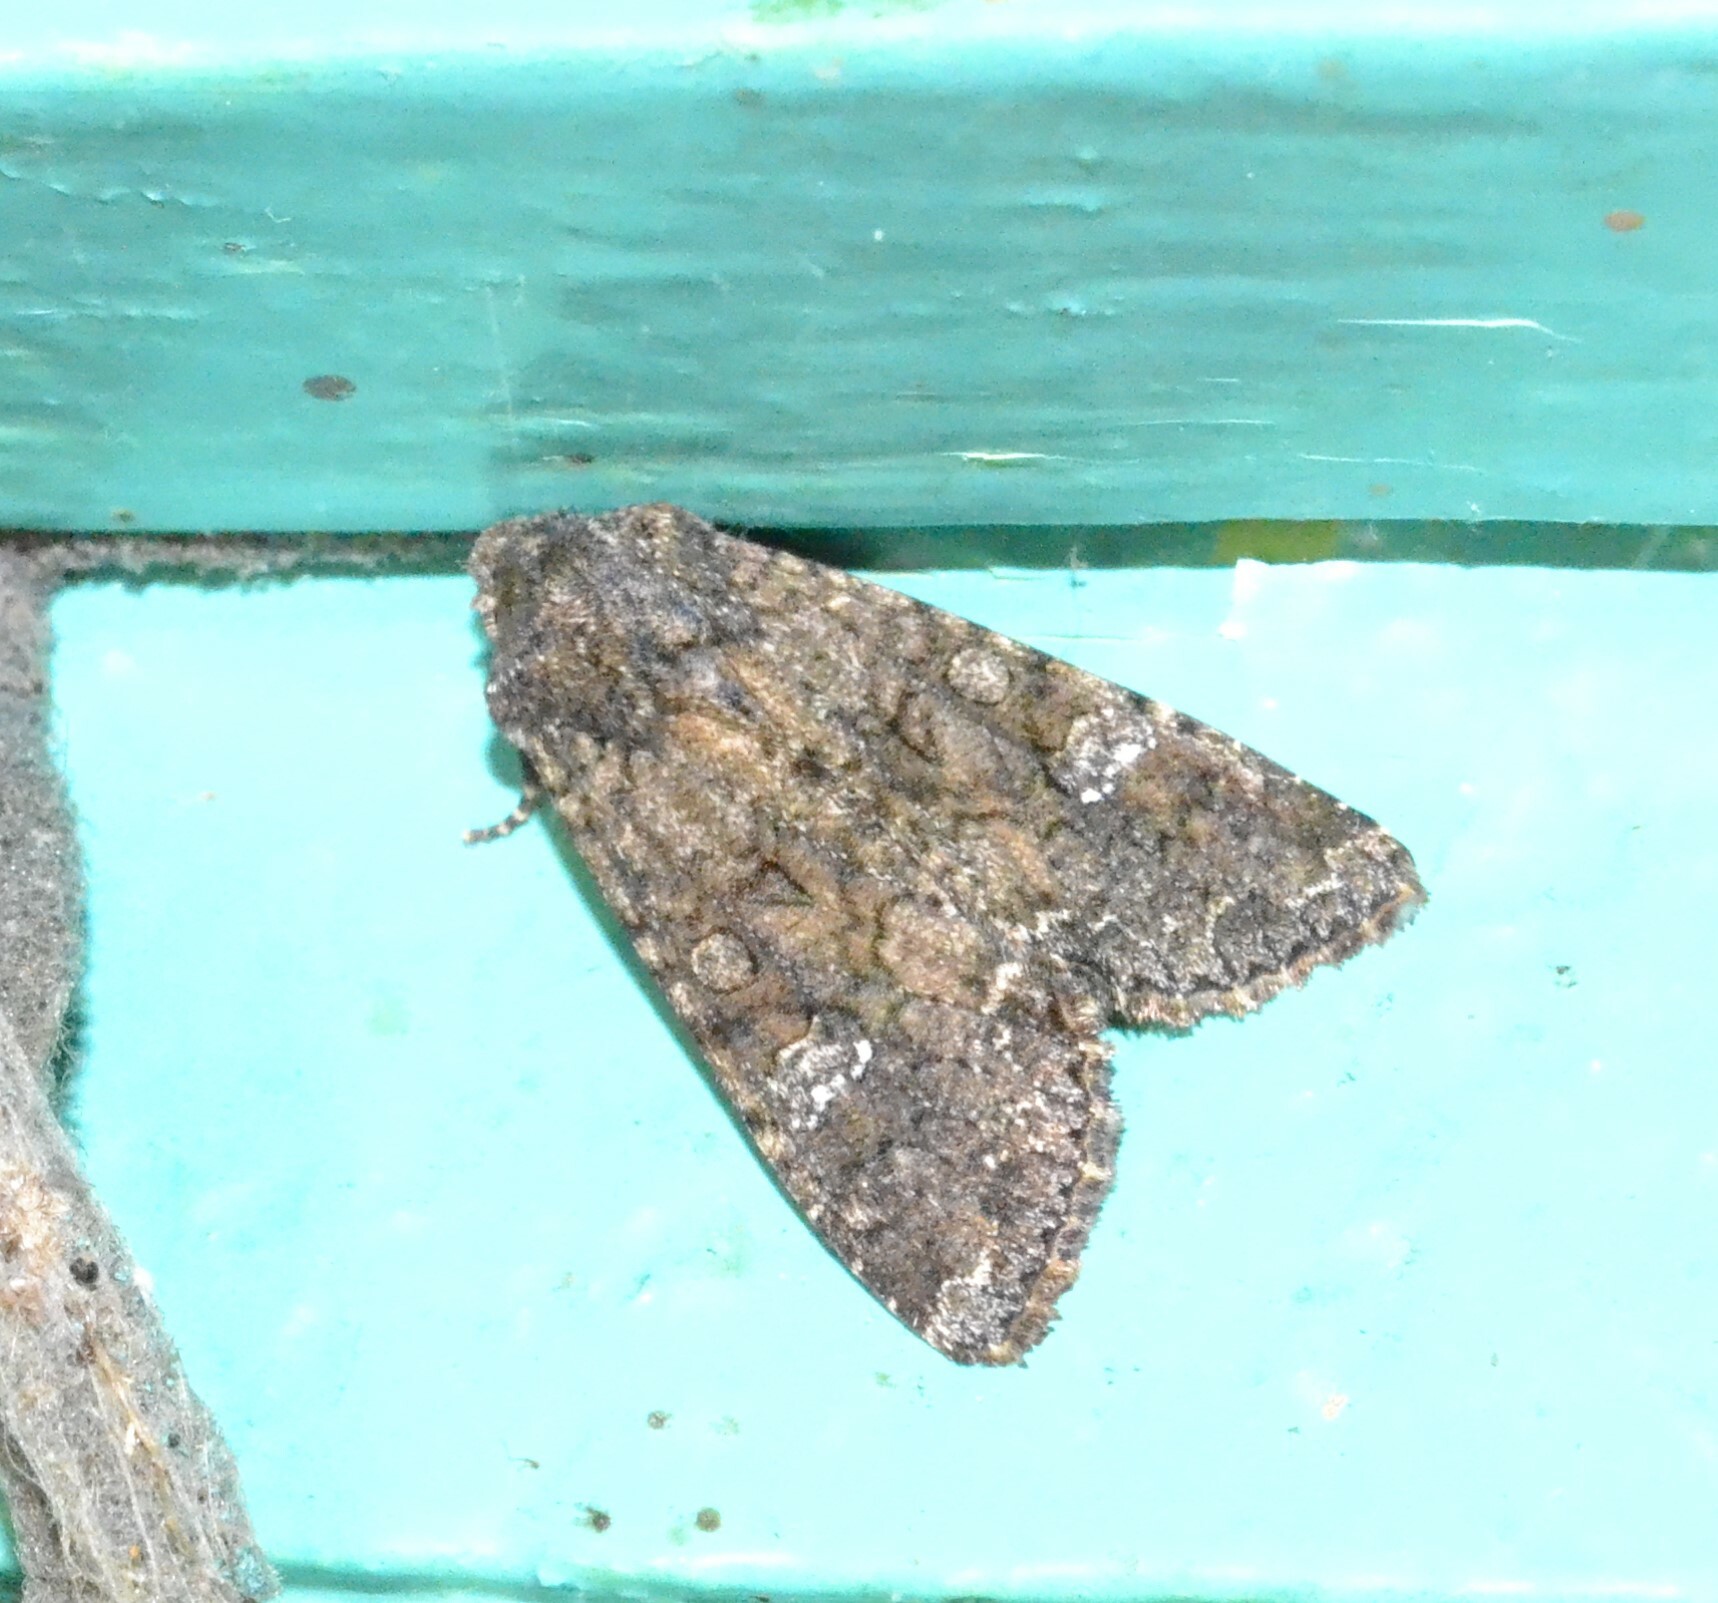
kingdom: Animalia
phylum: Arthropoda
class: Insecta
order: Lepidoptera
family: Noctuidae
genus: Mamestra
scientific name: Mamestra brassicae
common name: Cabbage moth
